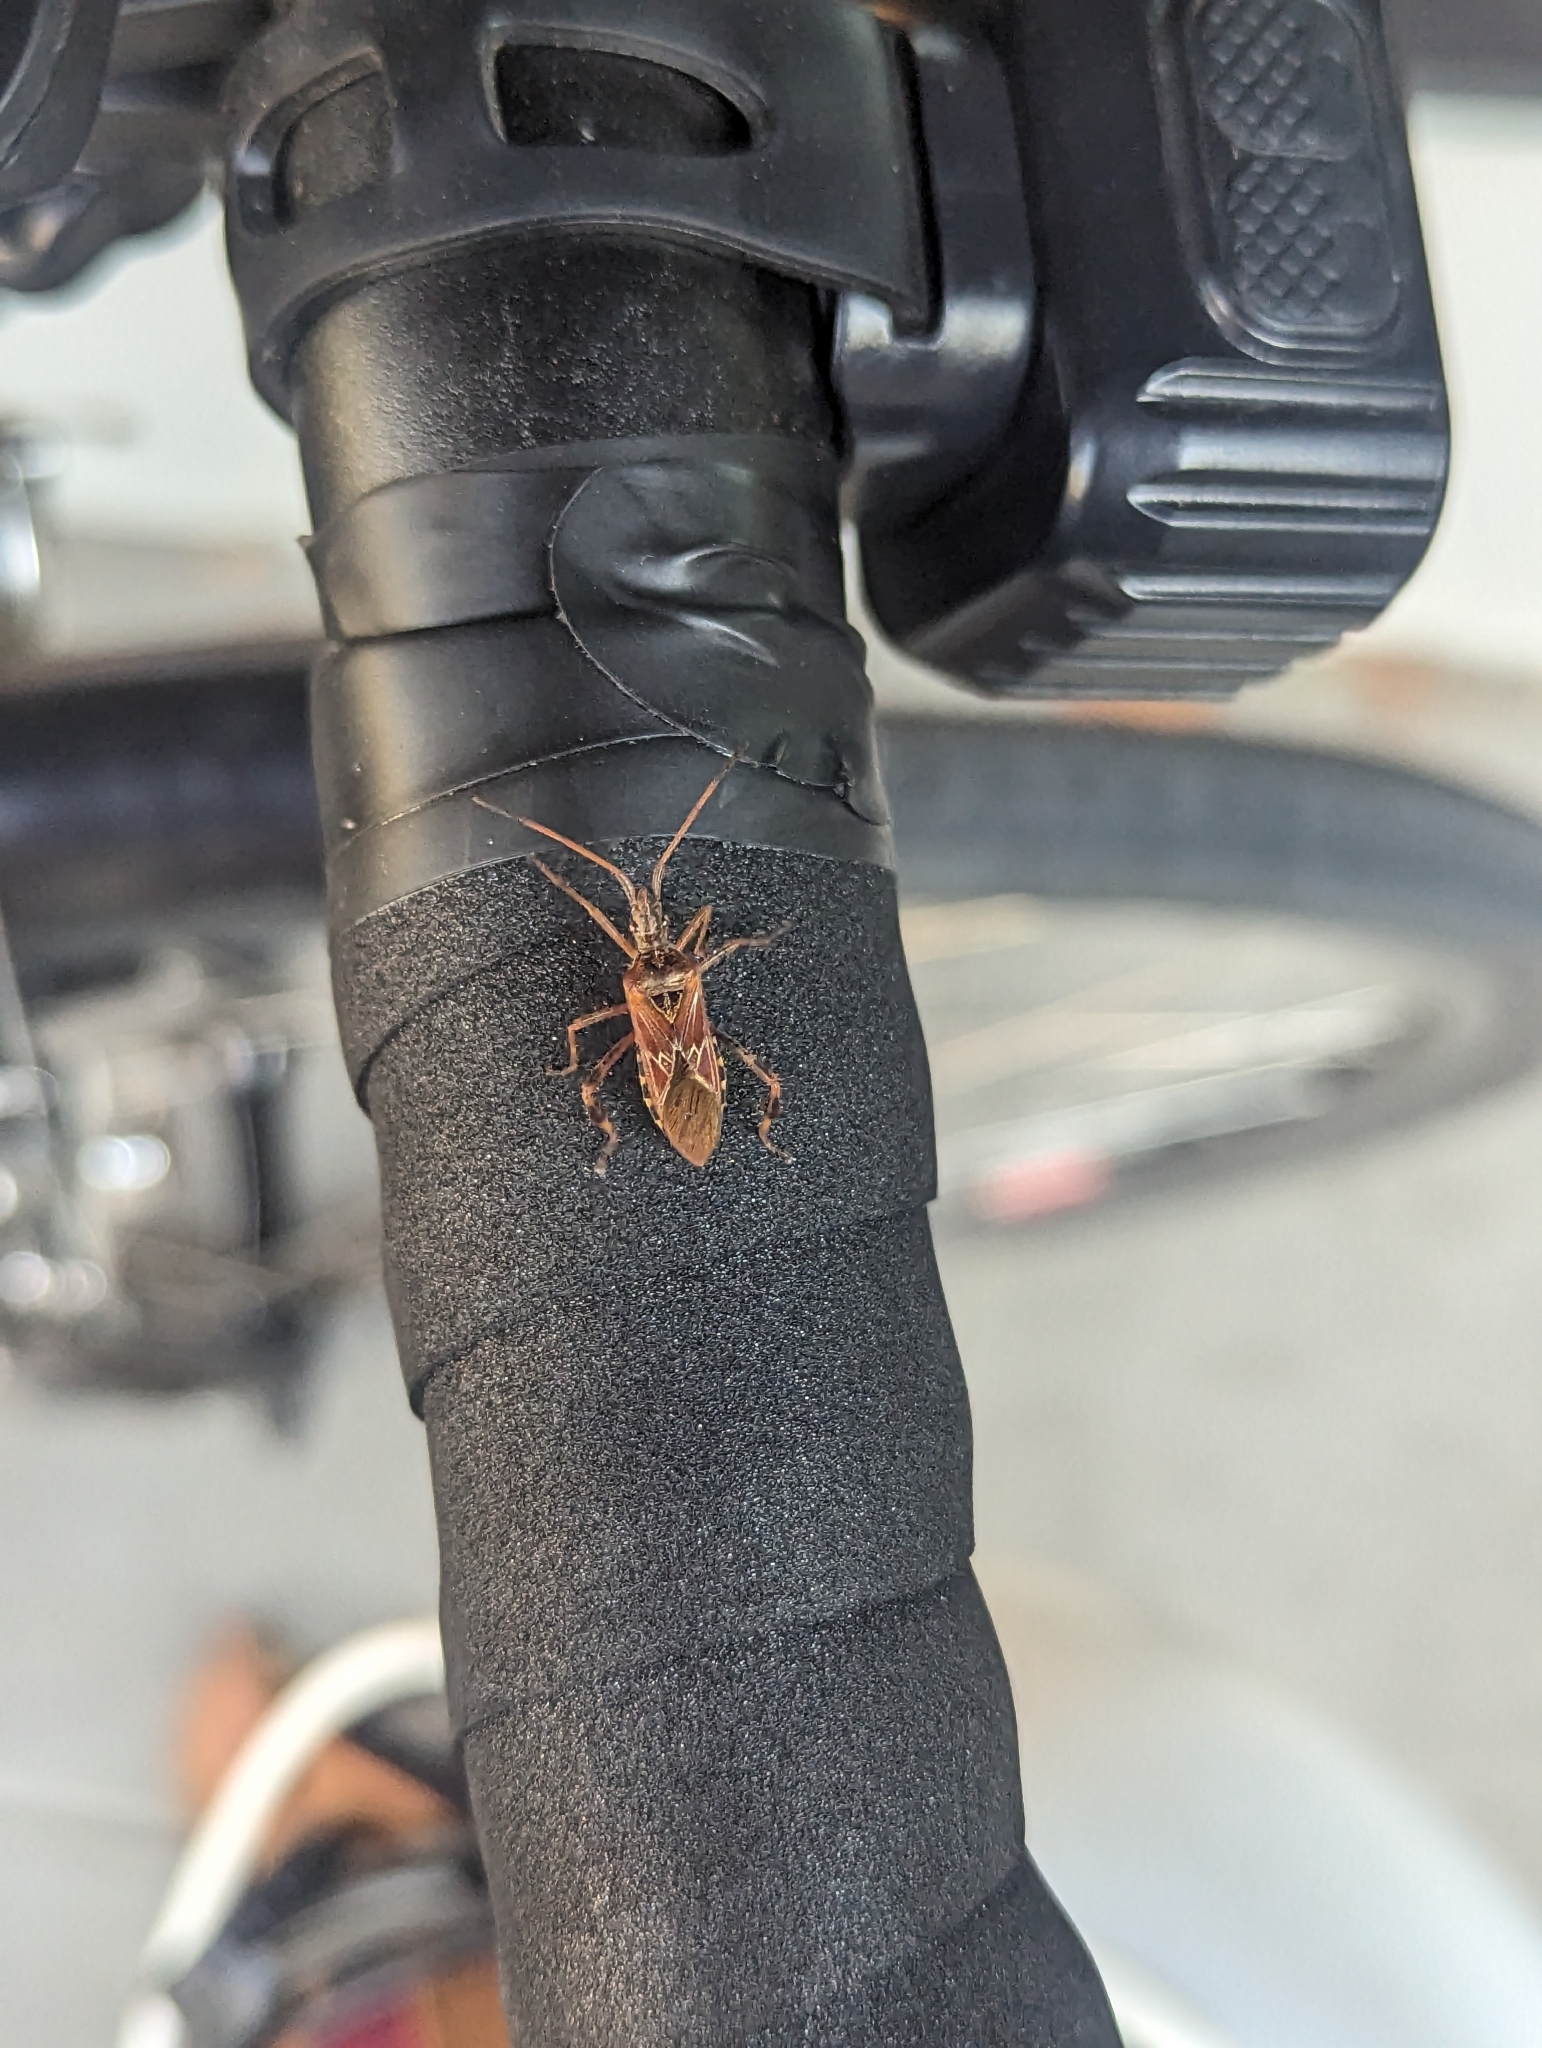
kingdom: Animalia
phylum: Arthropoda
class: Insecta
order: Hemiptera
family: Coreidae
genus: Leptoglossus
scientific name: Leptoglossus occidentalis
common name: Western conifer-seed bug
